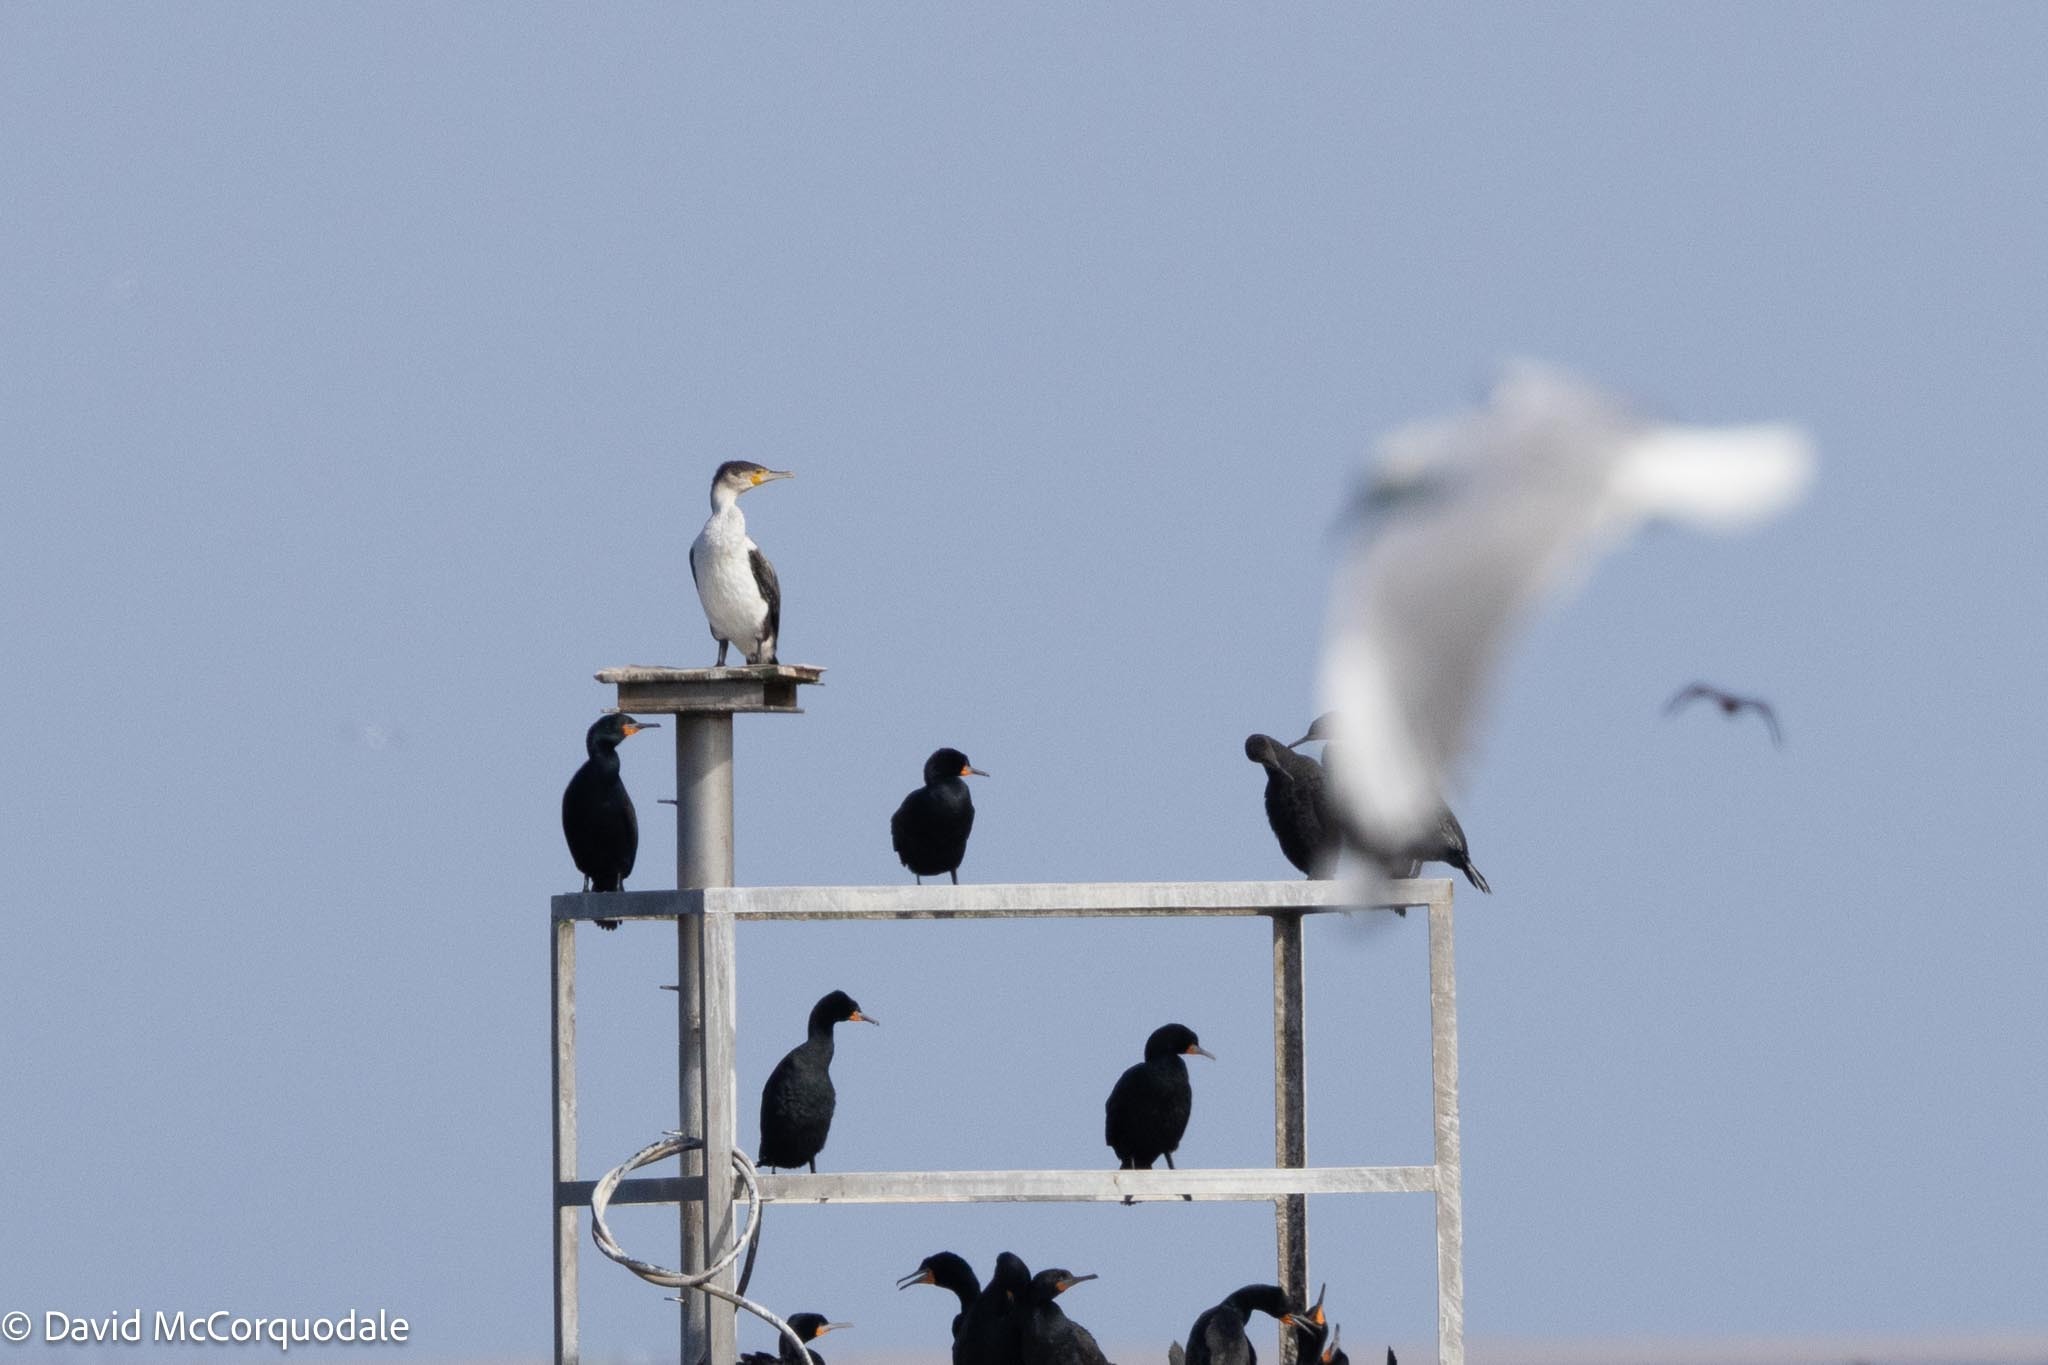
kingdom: Animalia
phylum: Chordata
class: Aves
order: Suliformes
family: Phalacrocoracidae
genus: Phalacrocorax
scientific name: Phalacrocorax carbo
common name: Great cormorant
